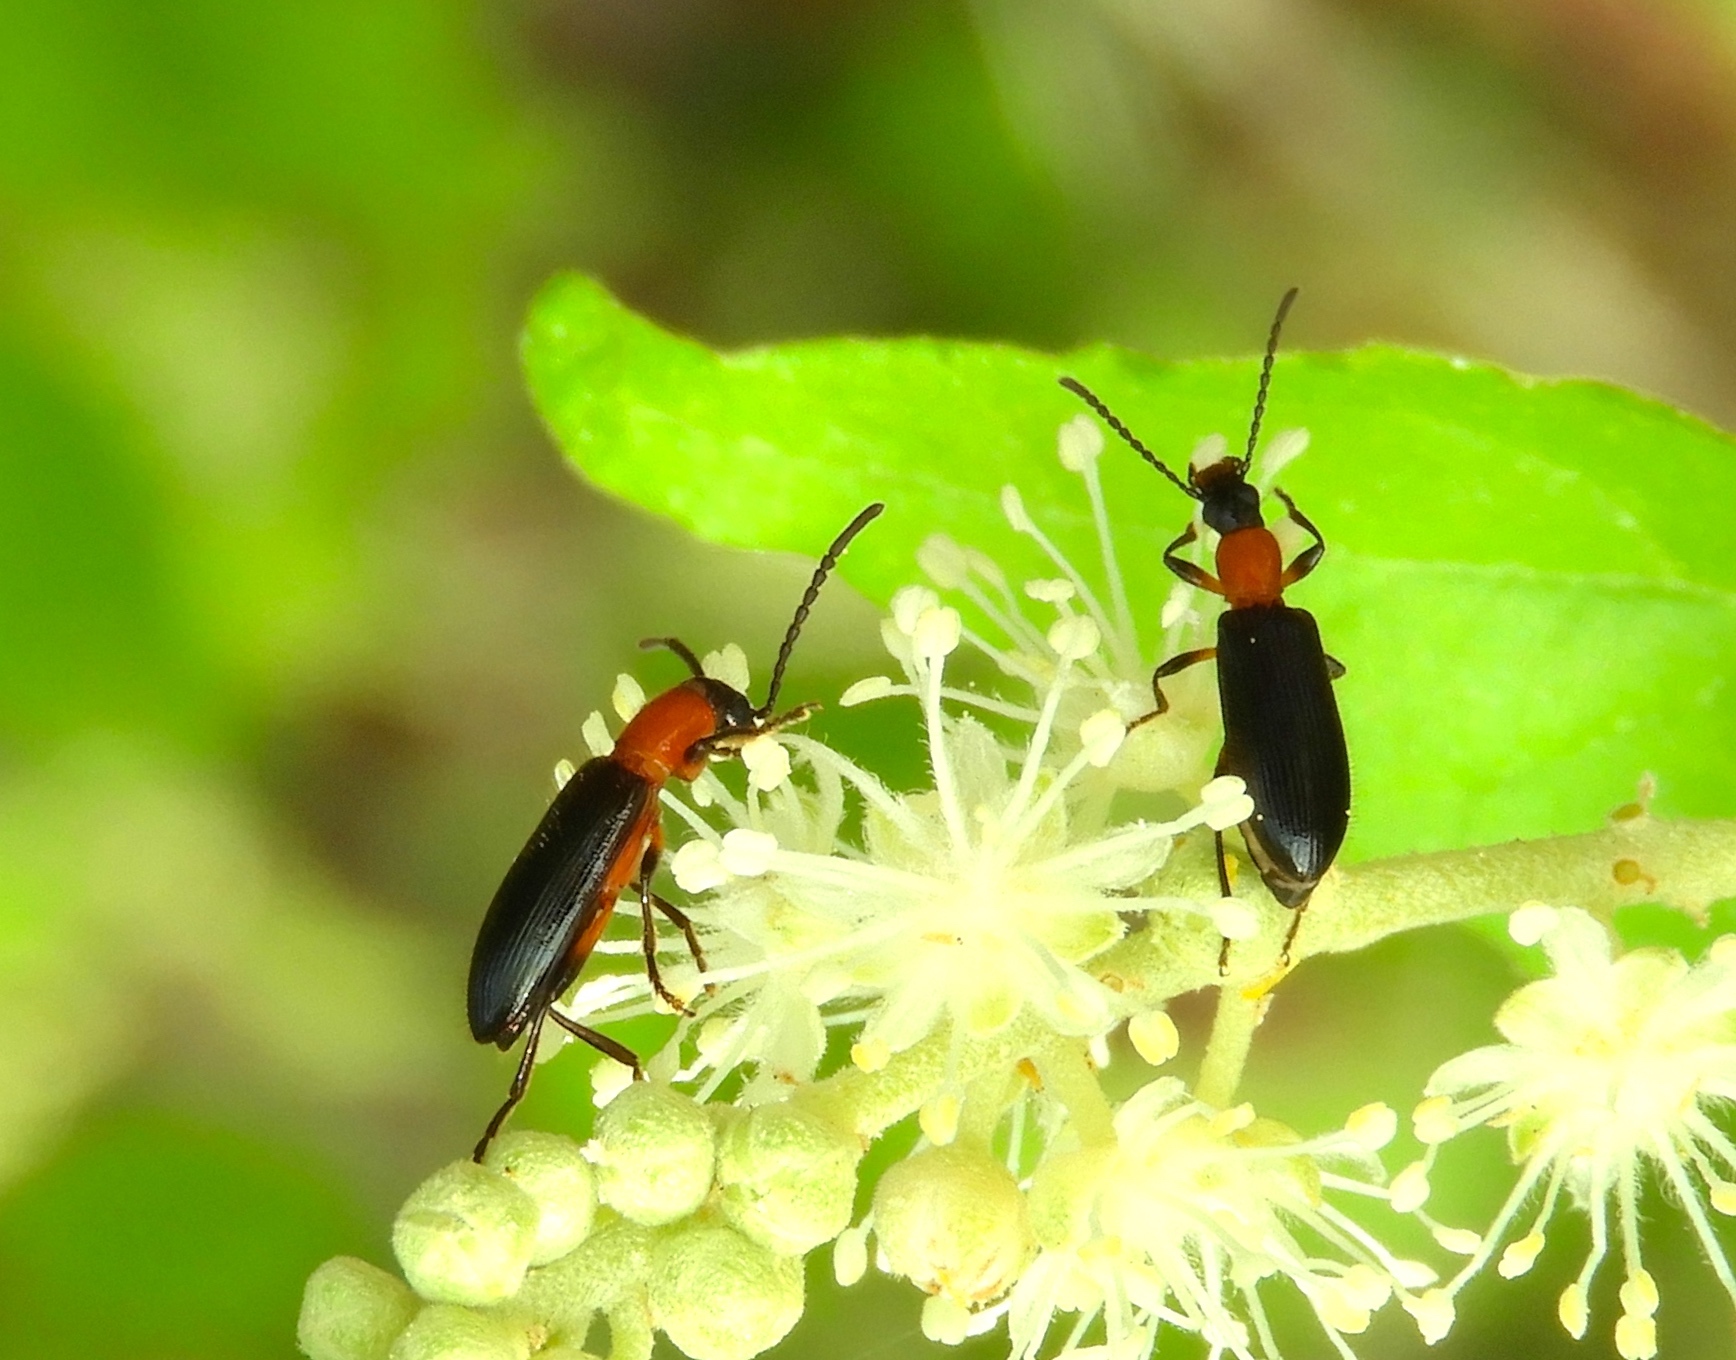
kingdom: Animalia
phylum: Arthropoda
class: Insecta
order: Coleoptera
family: Tenebrionidae
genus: Statira
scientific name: Statira
